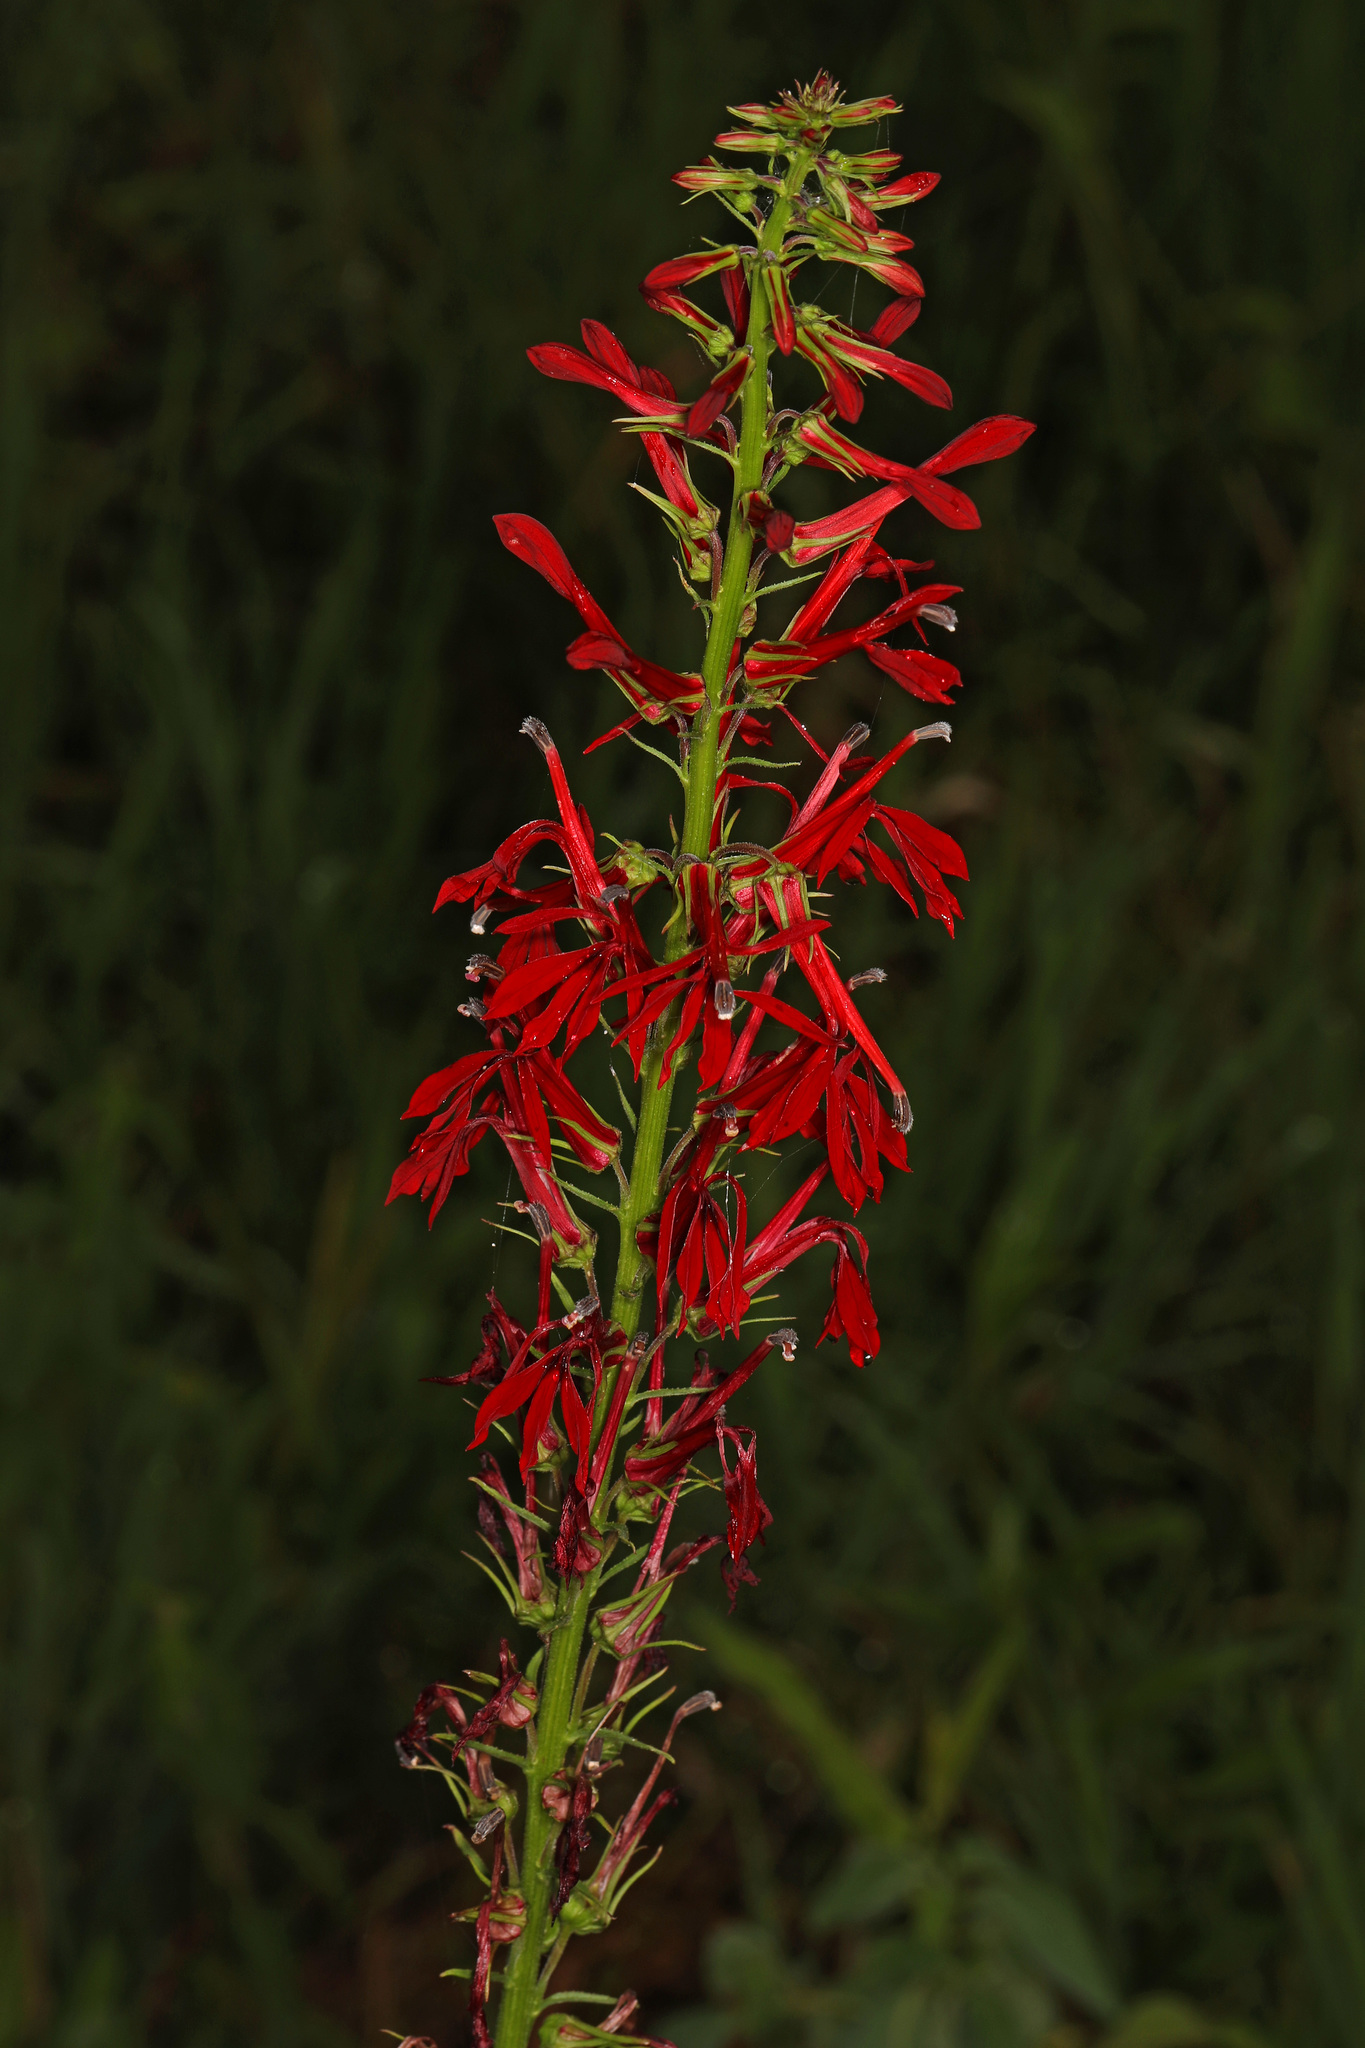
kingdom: Plantae
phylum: Tracheophyta
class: Magnoliopsida
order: Asterales
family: Campanulaceae
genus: Lobelia
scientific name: Lobelia cardinalis
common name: Cardinal flower
